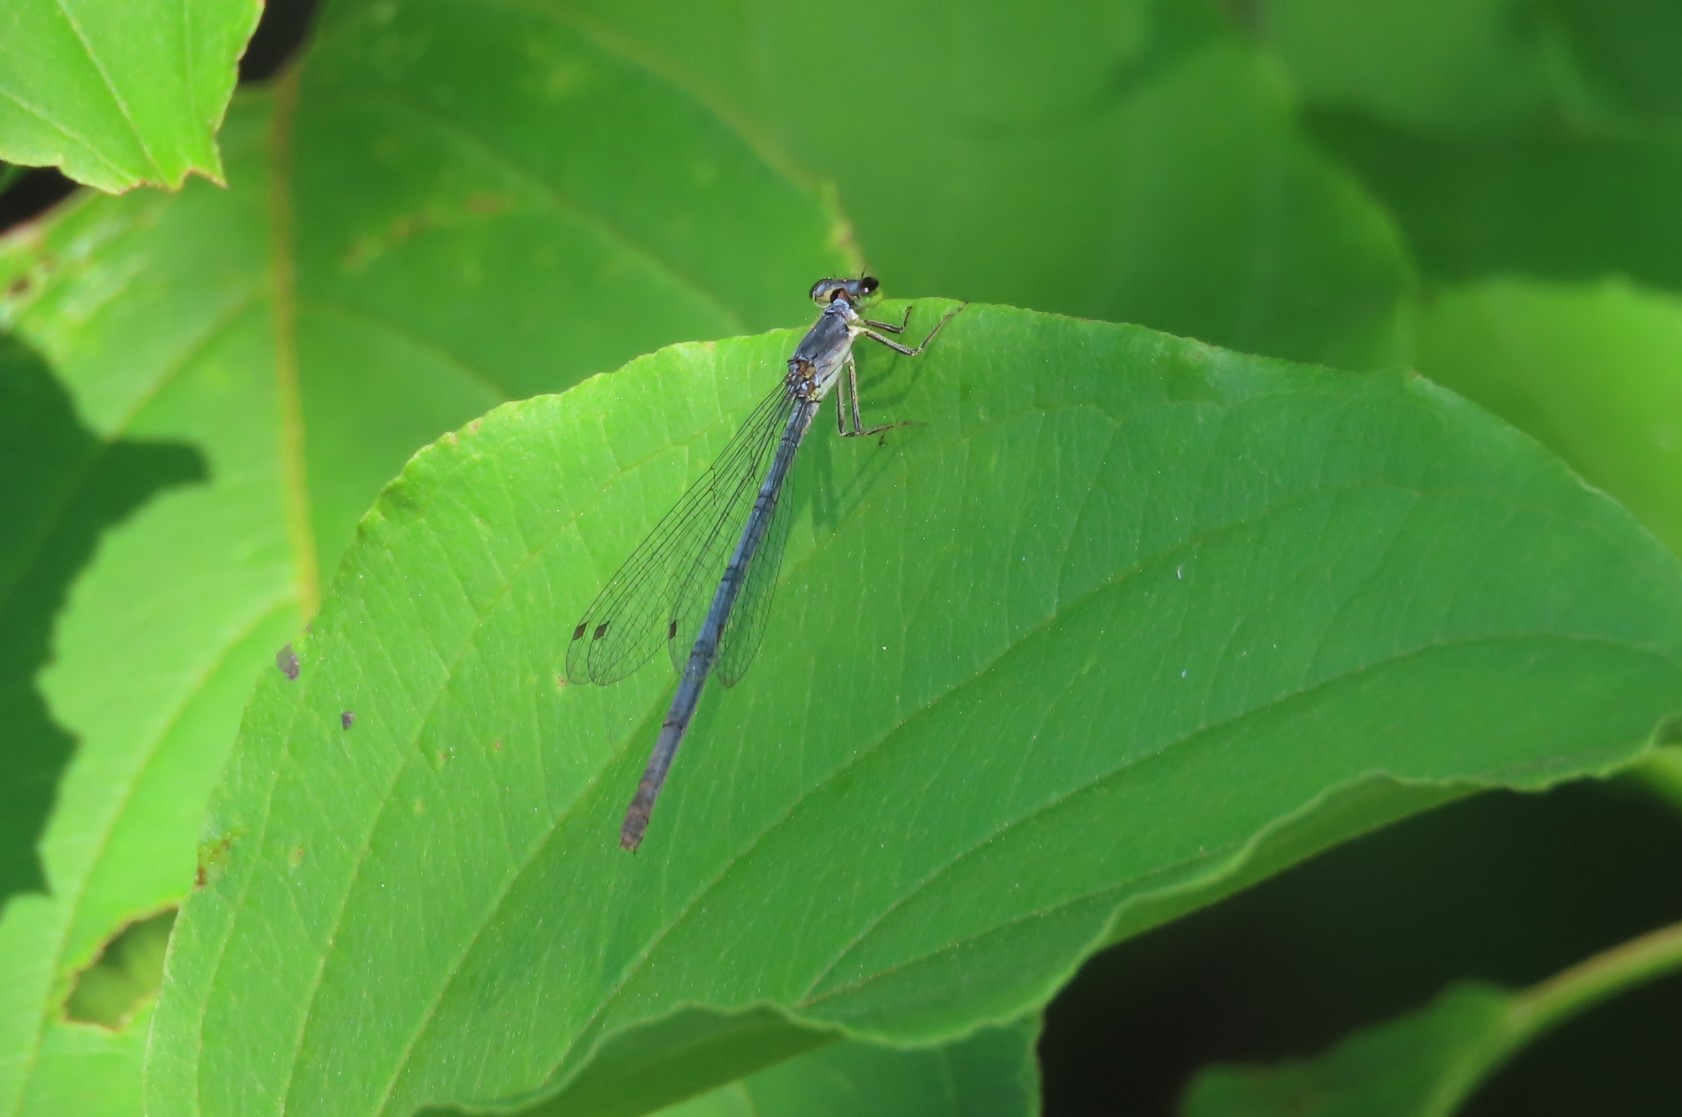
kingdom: Animalia
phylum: Arthropoda
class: Insecta
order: Odonata
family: Coenagrionidae
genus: Ischnura
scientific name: Ischnura posita
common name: Fragile forktail
